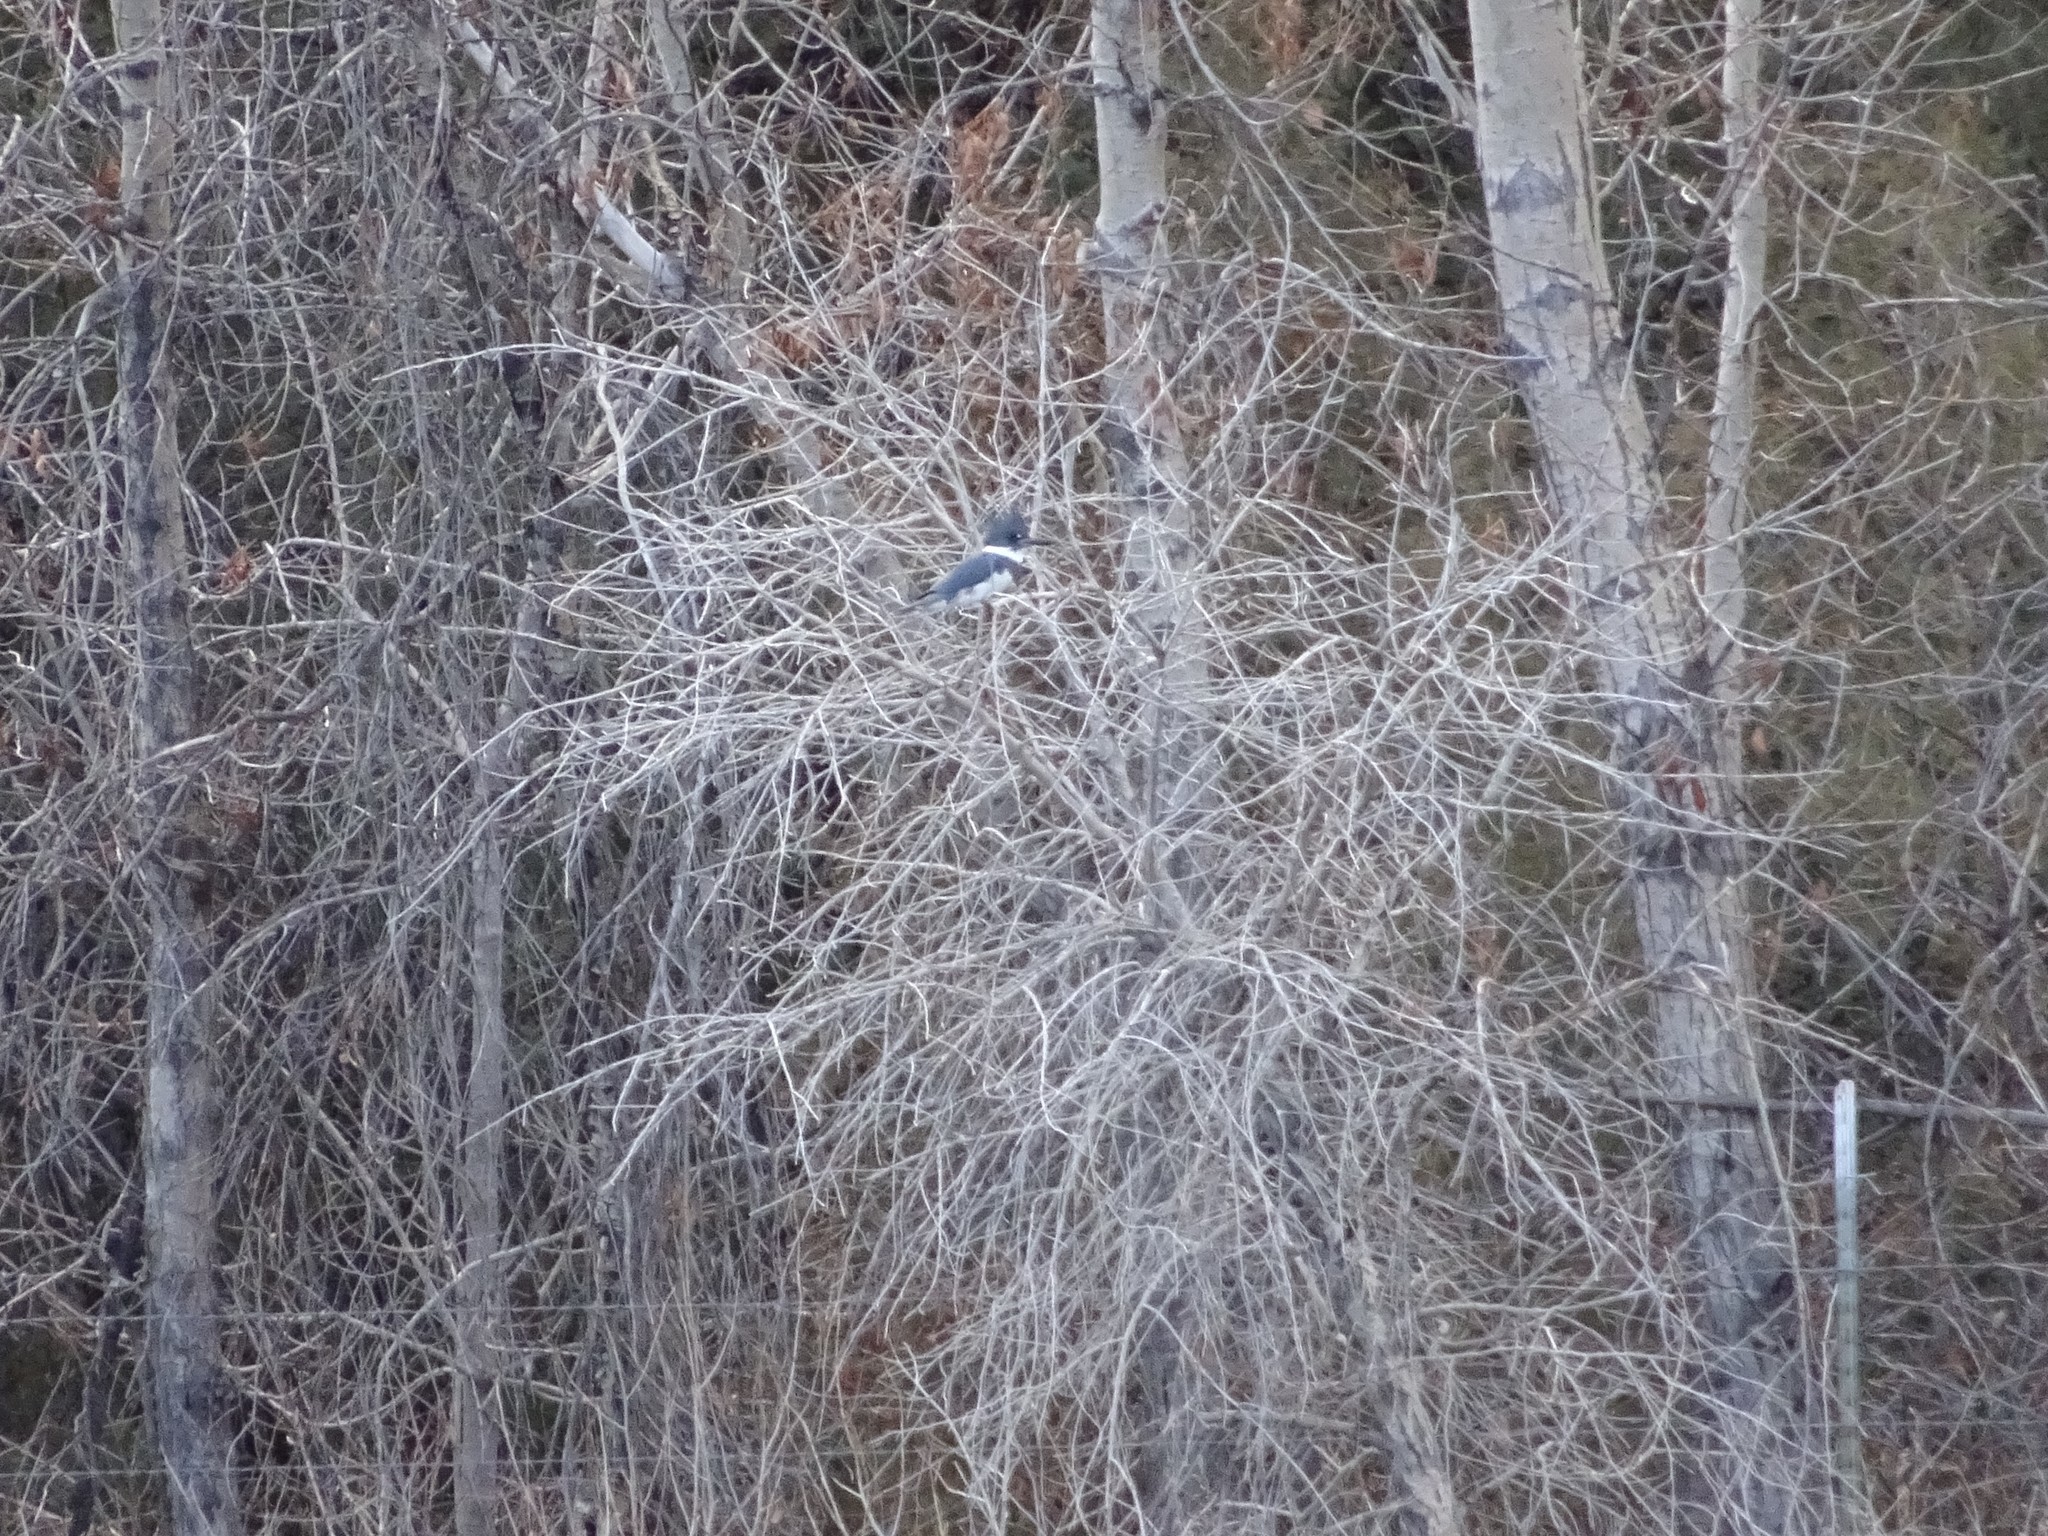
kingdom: Animalia
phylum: Chordata
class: Aves
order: Coraciiformes
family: Alcedinidae
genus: Megaceryle
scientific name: Megaceryle alcyon
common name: Belted kingfisher
